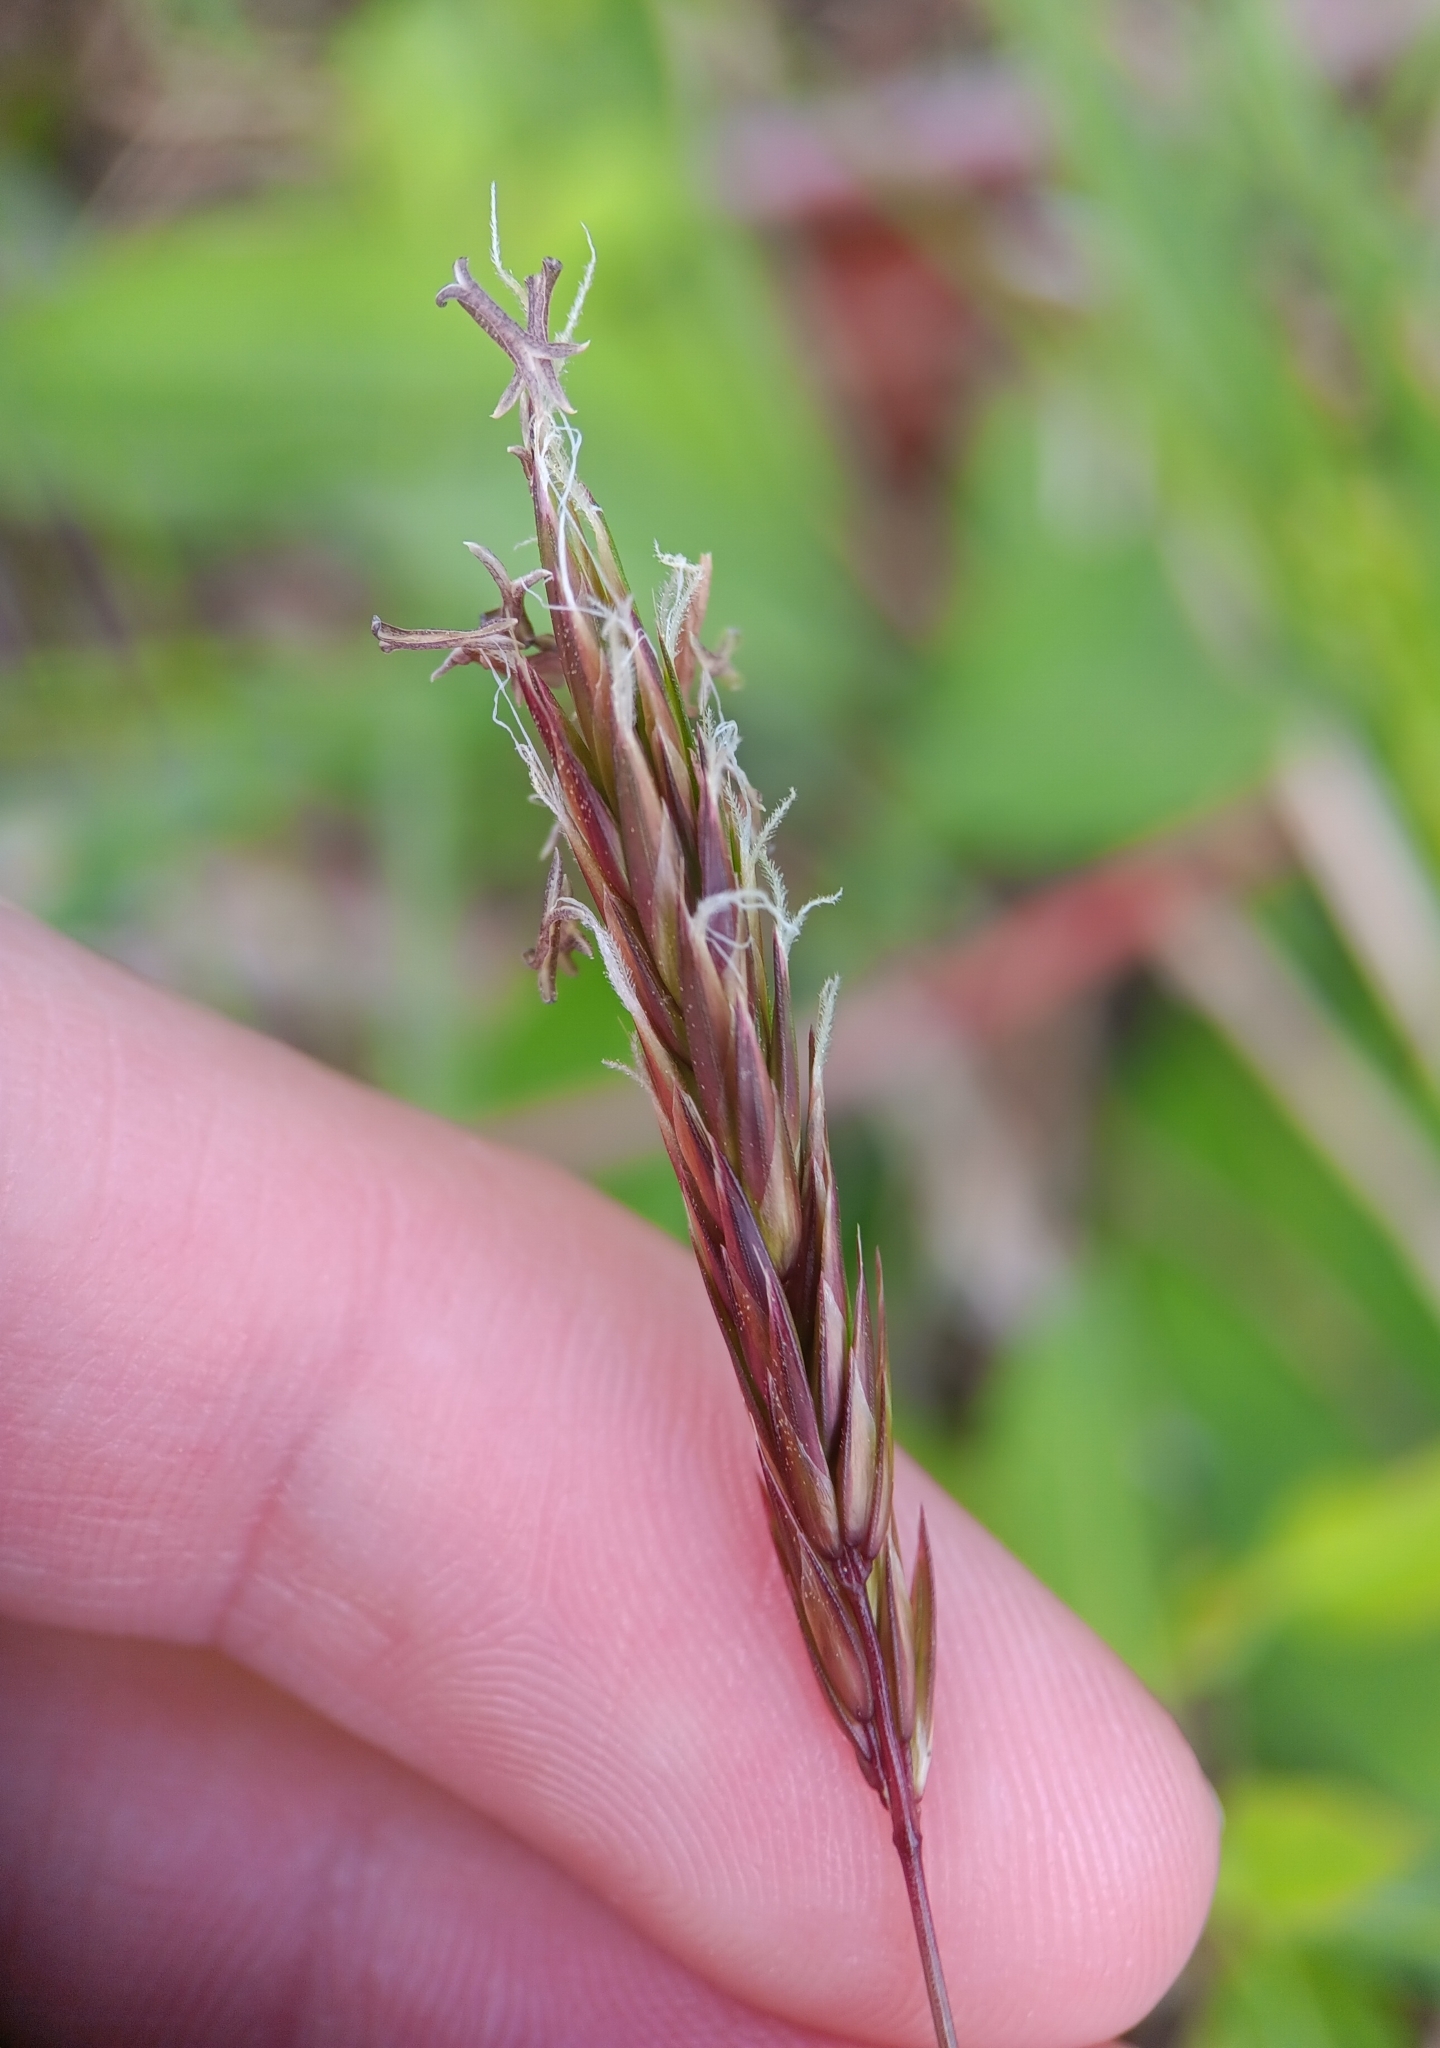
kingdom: Plantae
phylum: Tracheophyta
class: Liliopsida
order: Poales
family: Poaceae
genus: Anthoxanthum
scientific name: Anthoxanthum odoratum
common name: Sweet vernalgrass
